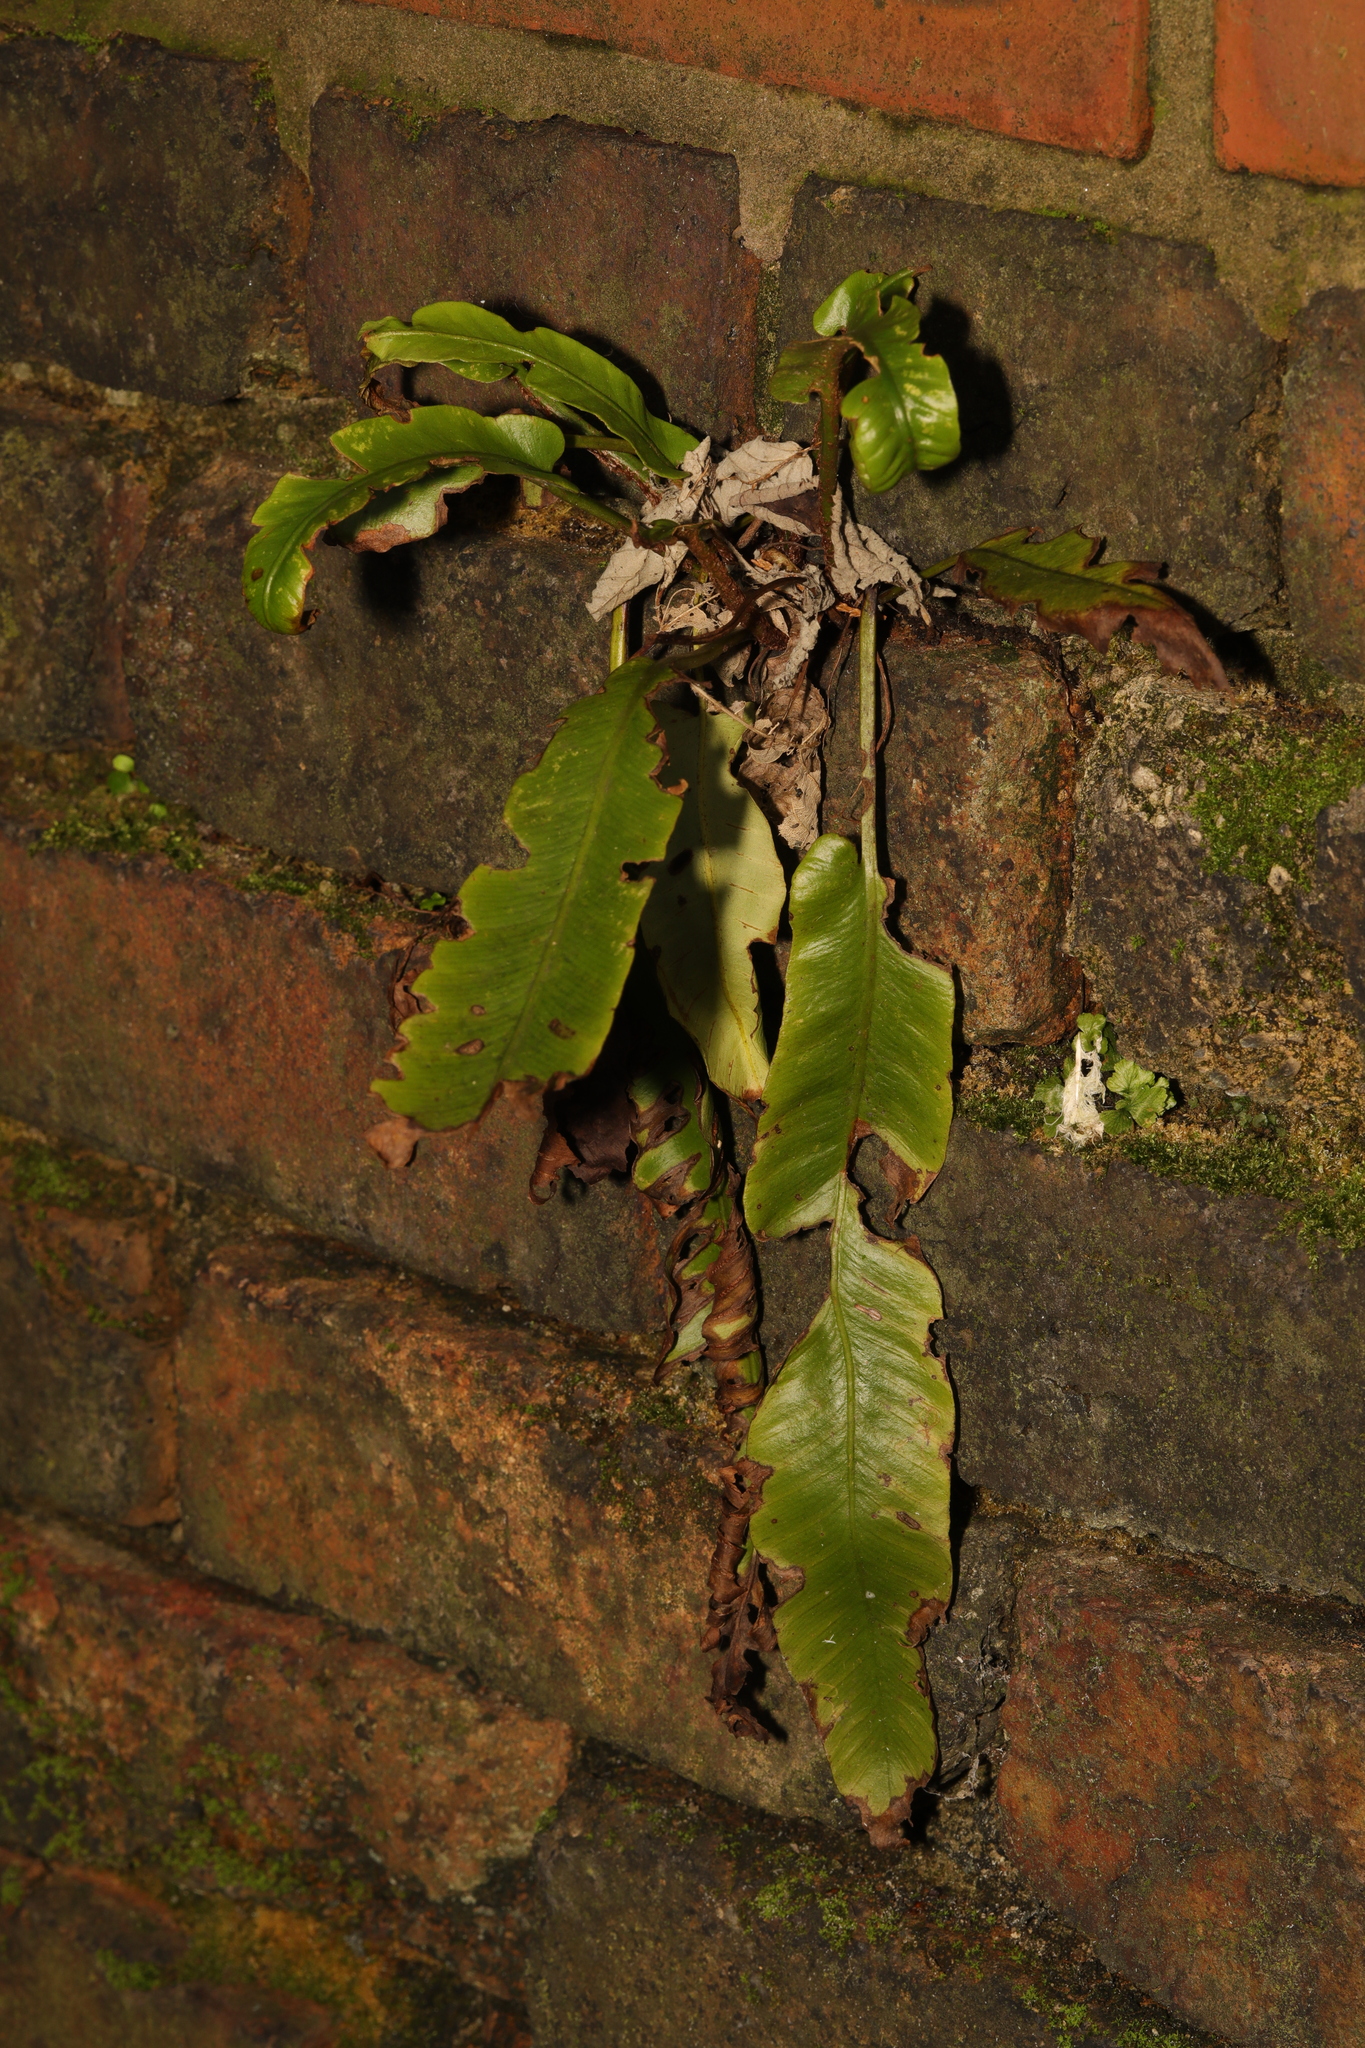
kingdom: Plantae
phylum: Tracheophyta
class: Polypodiopsida
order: Polypodiales
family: Aspleniaceae
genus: Asplenium
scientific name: Asplenium scolopendrium
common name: Hart's-tongue fern
